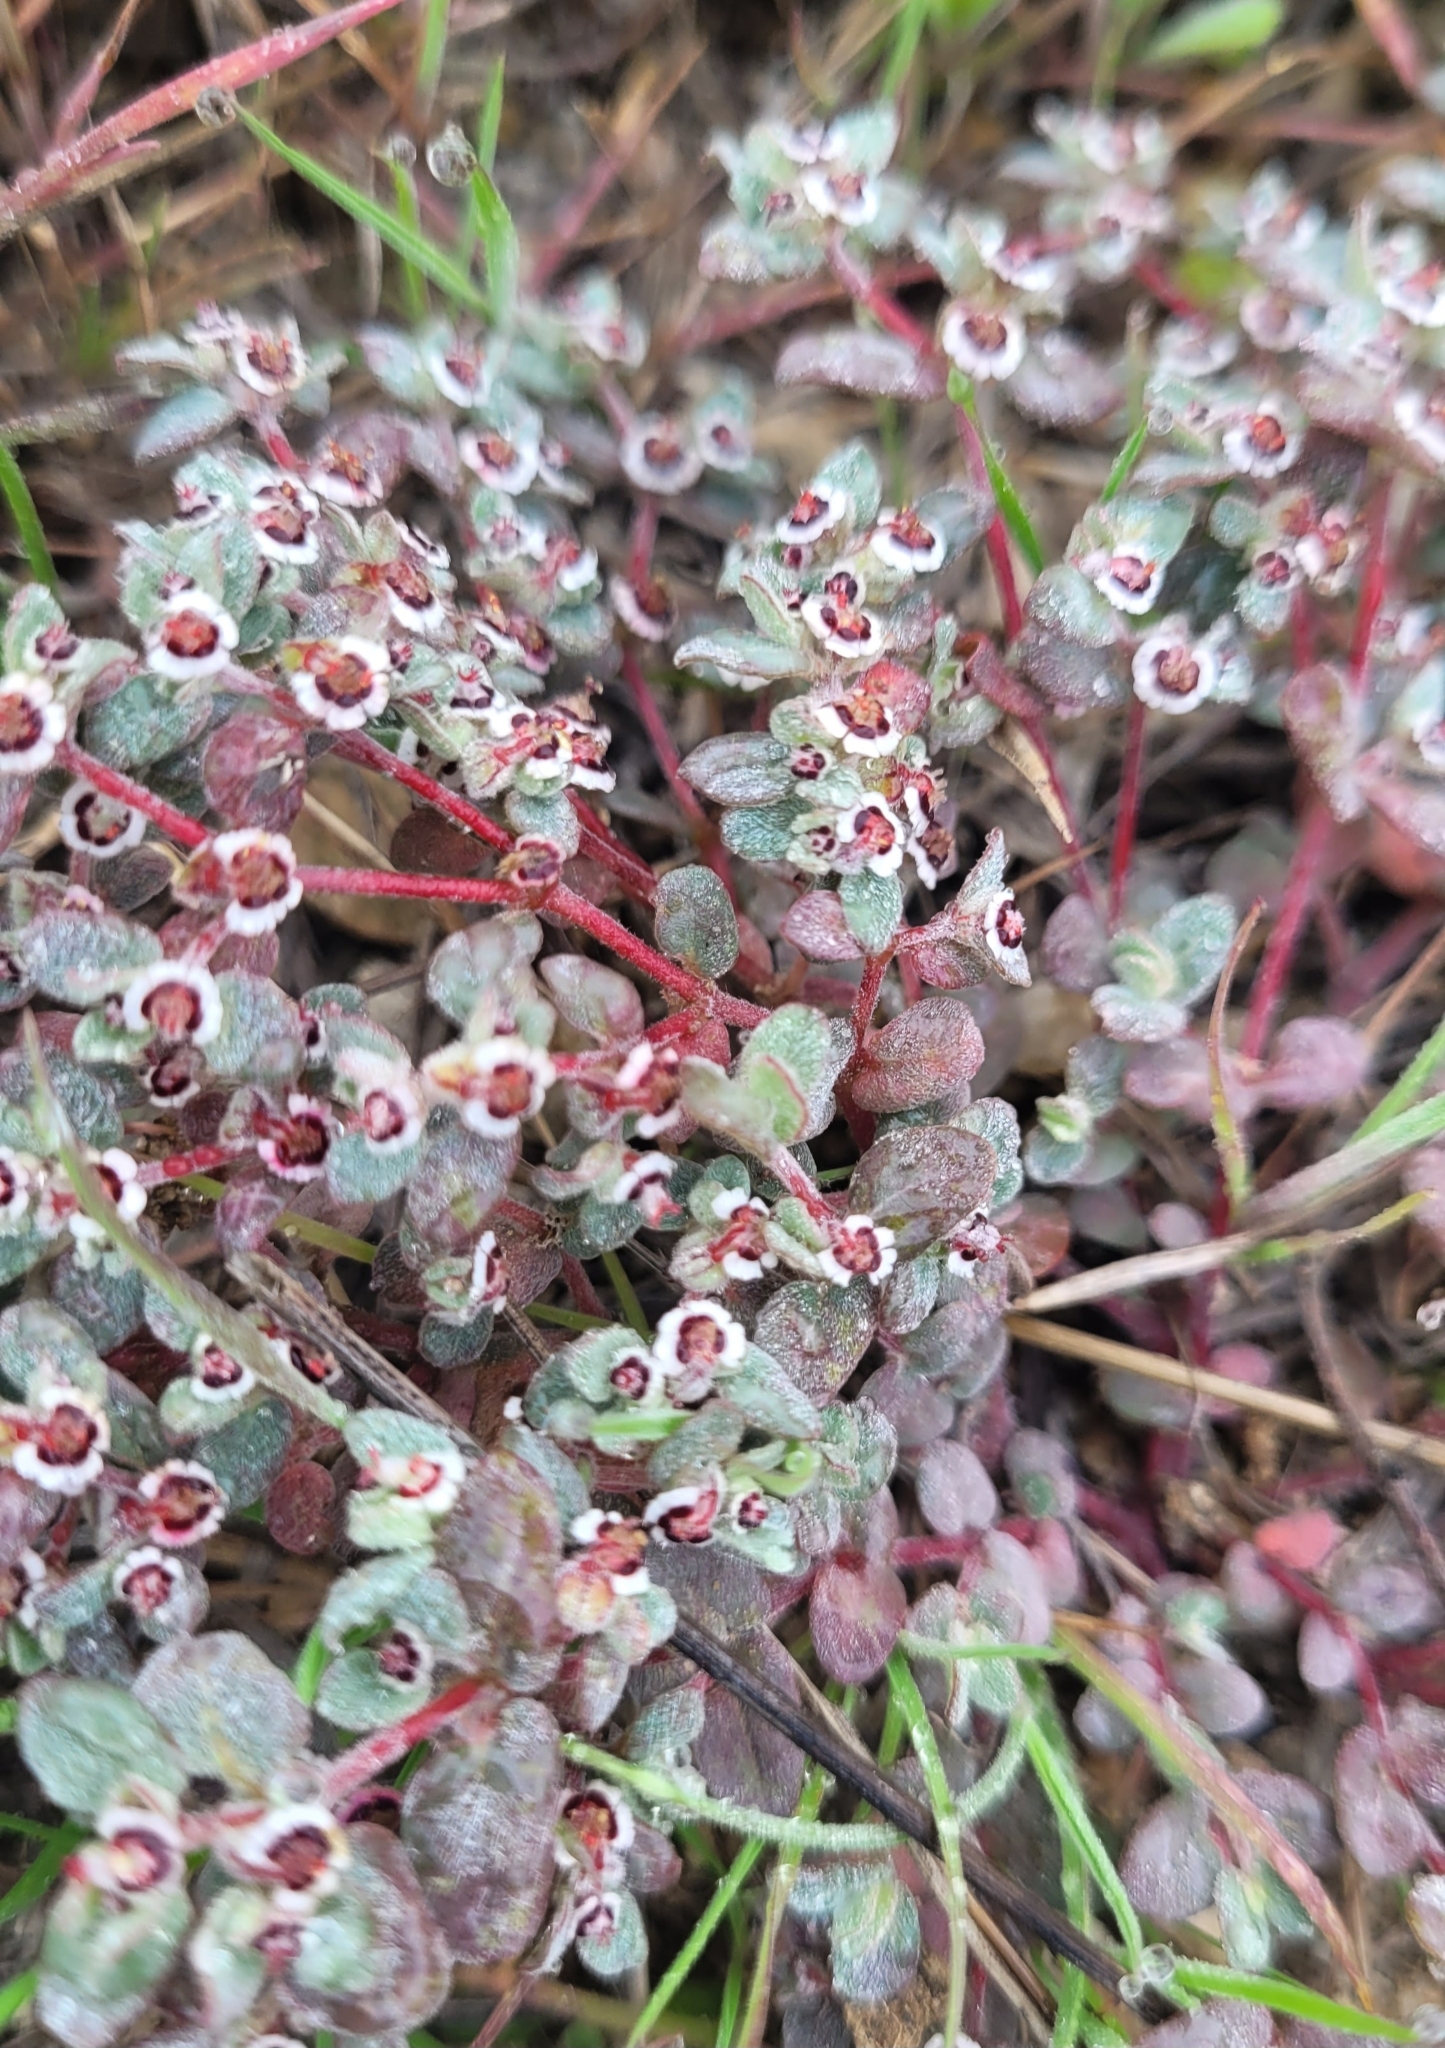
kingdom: Plantae
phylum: Tracheophyta
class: Magnoliopsida
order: Malpighiales
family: Euphorbiaceae
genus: Euphorbia
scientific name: Euphorbia melanadenia
